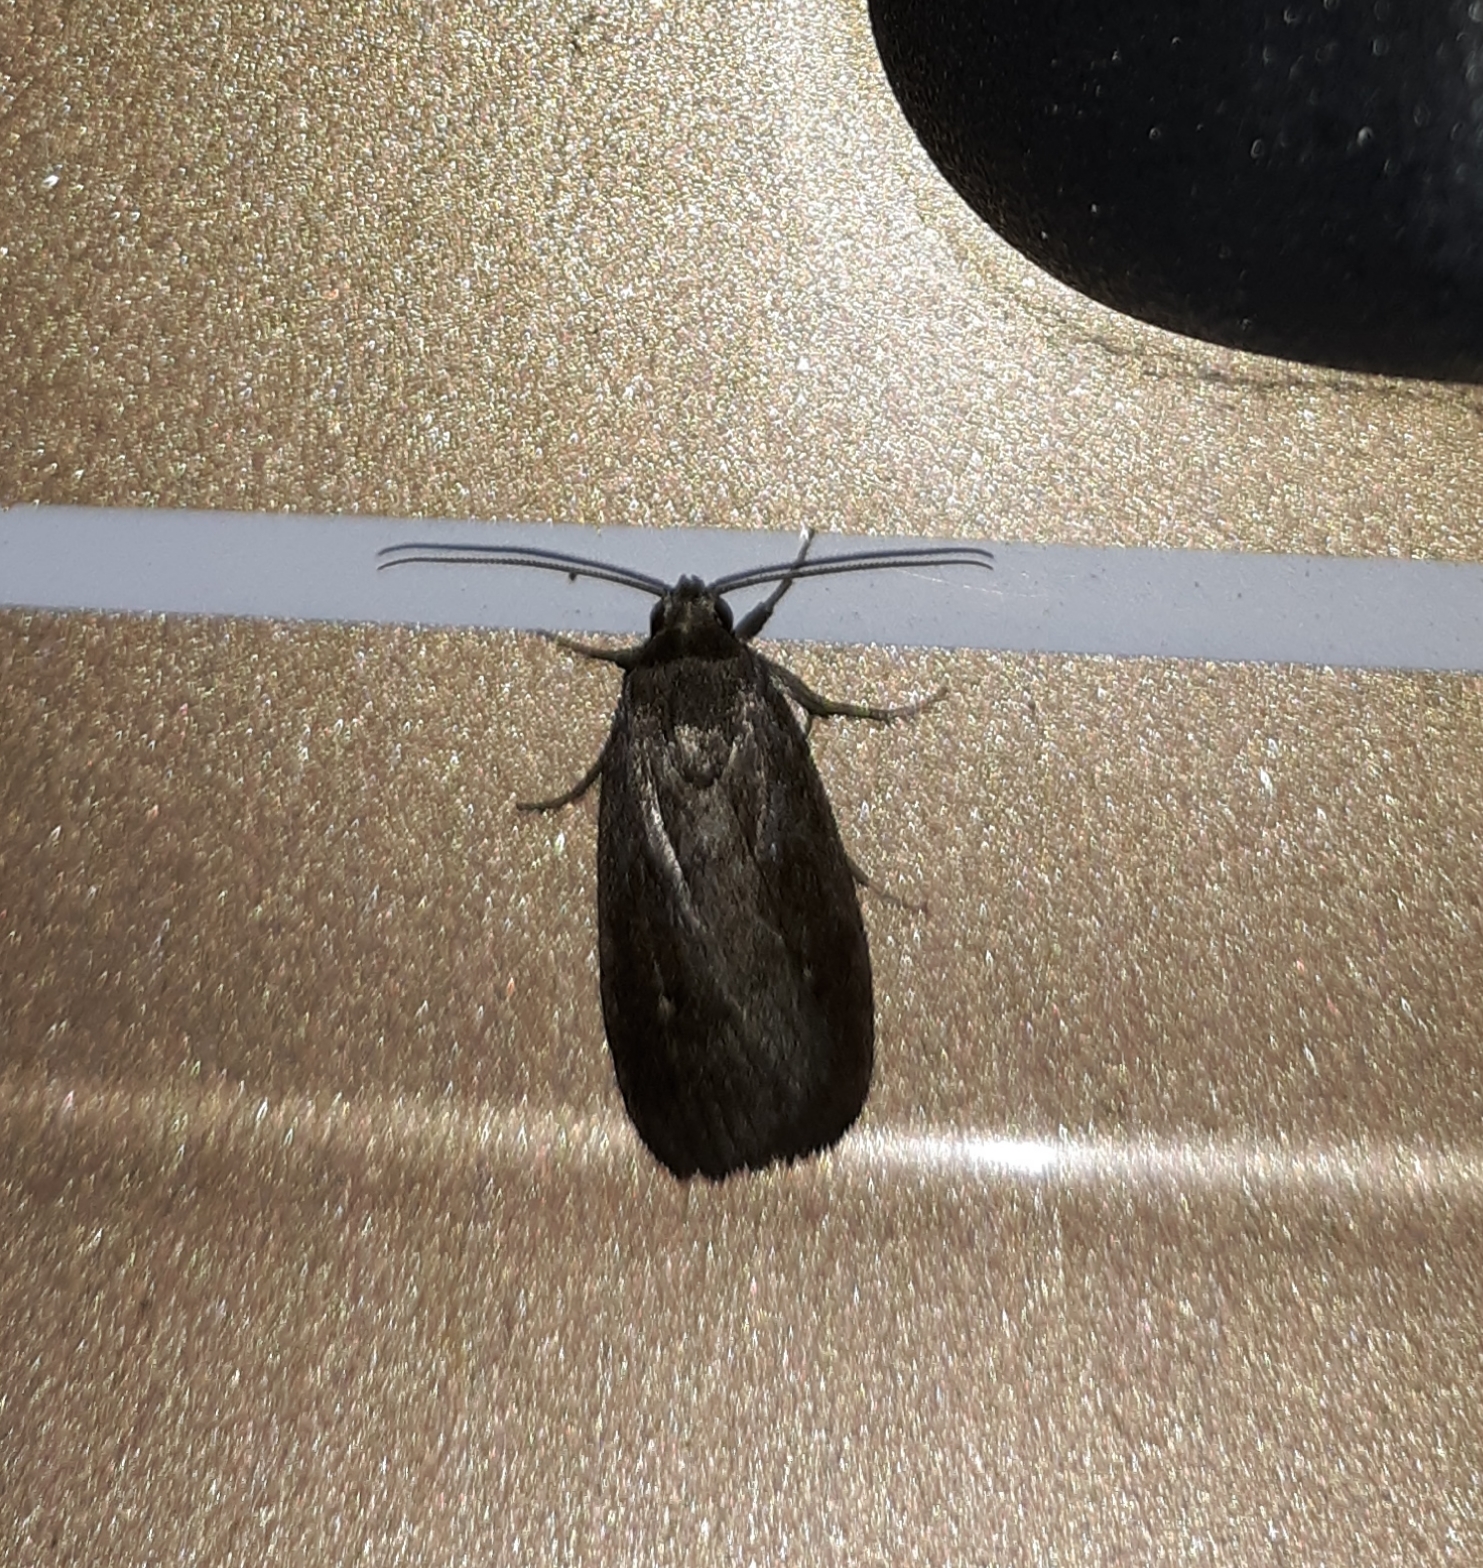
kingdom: Animalia
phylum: Arthropoda
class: Insecta
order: Lepidoptera
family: Noctuidae
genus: Proxenus
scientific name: Proxenus miranda
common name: Miranda moth
